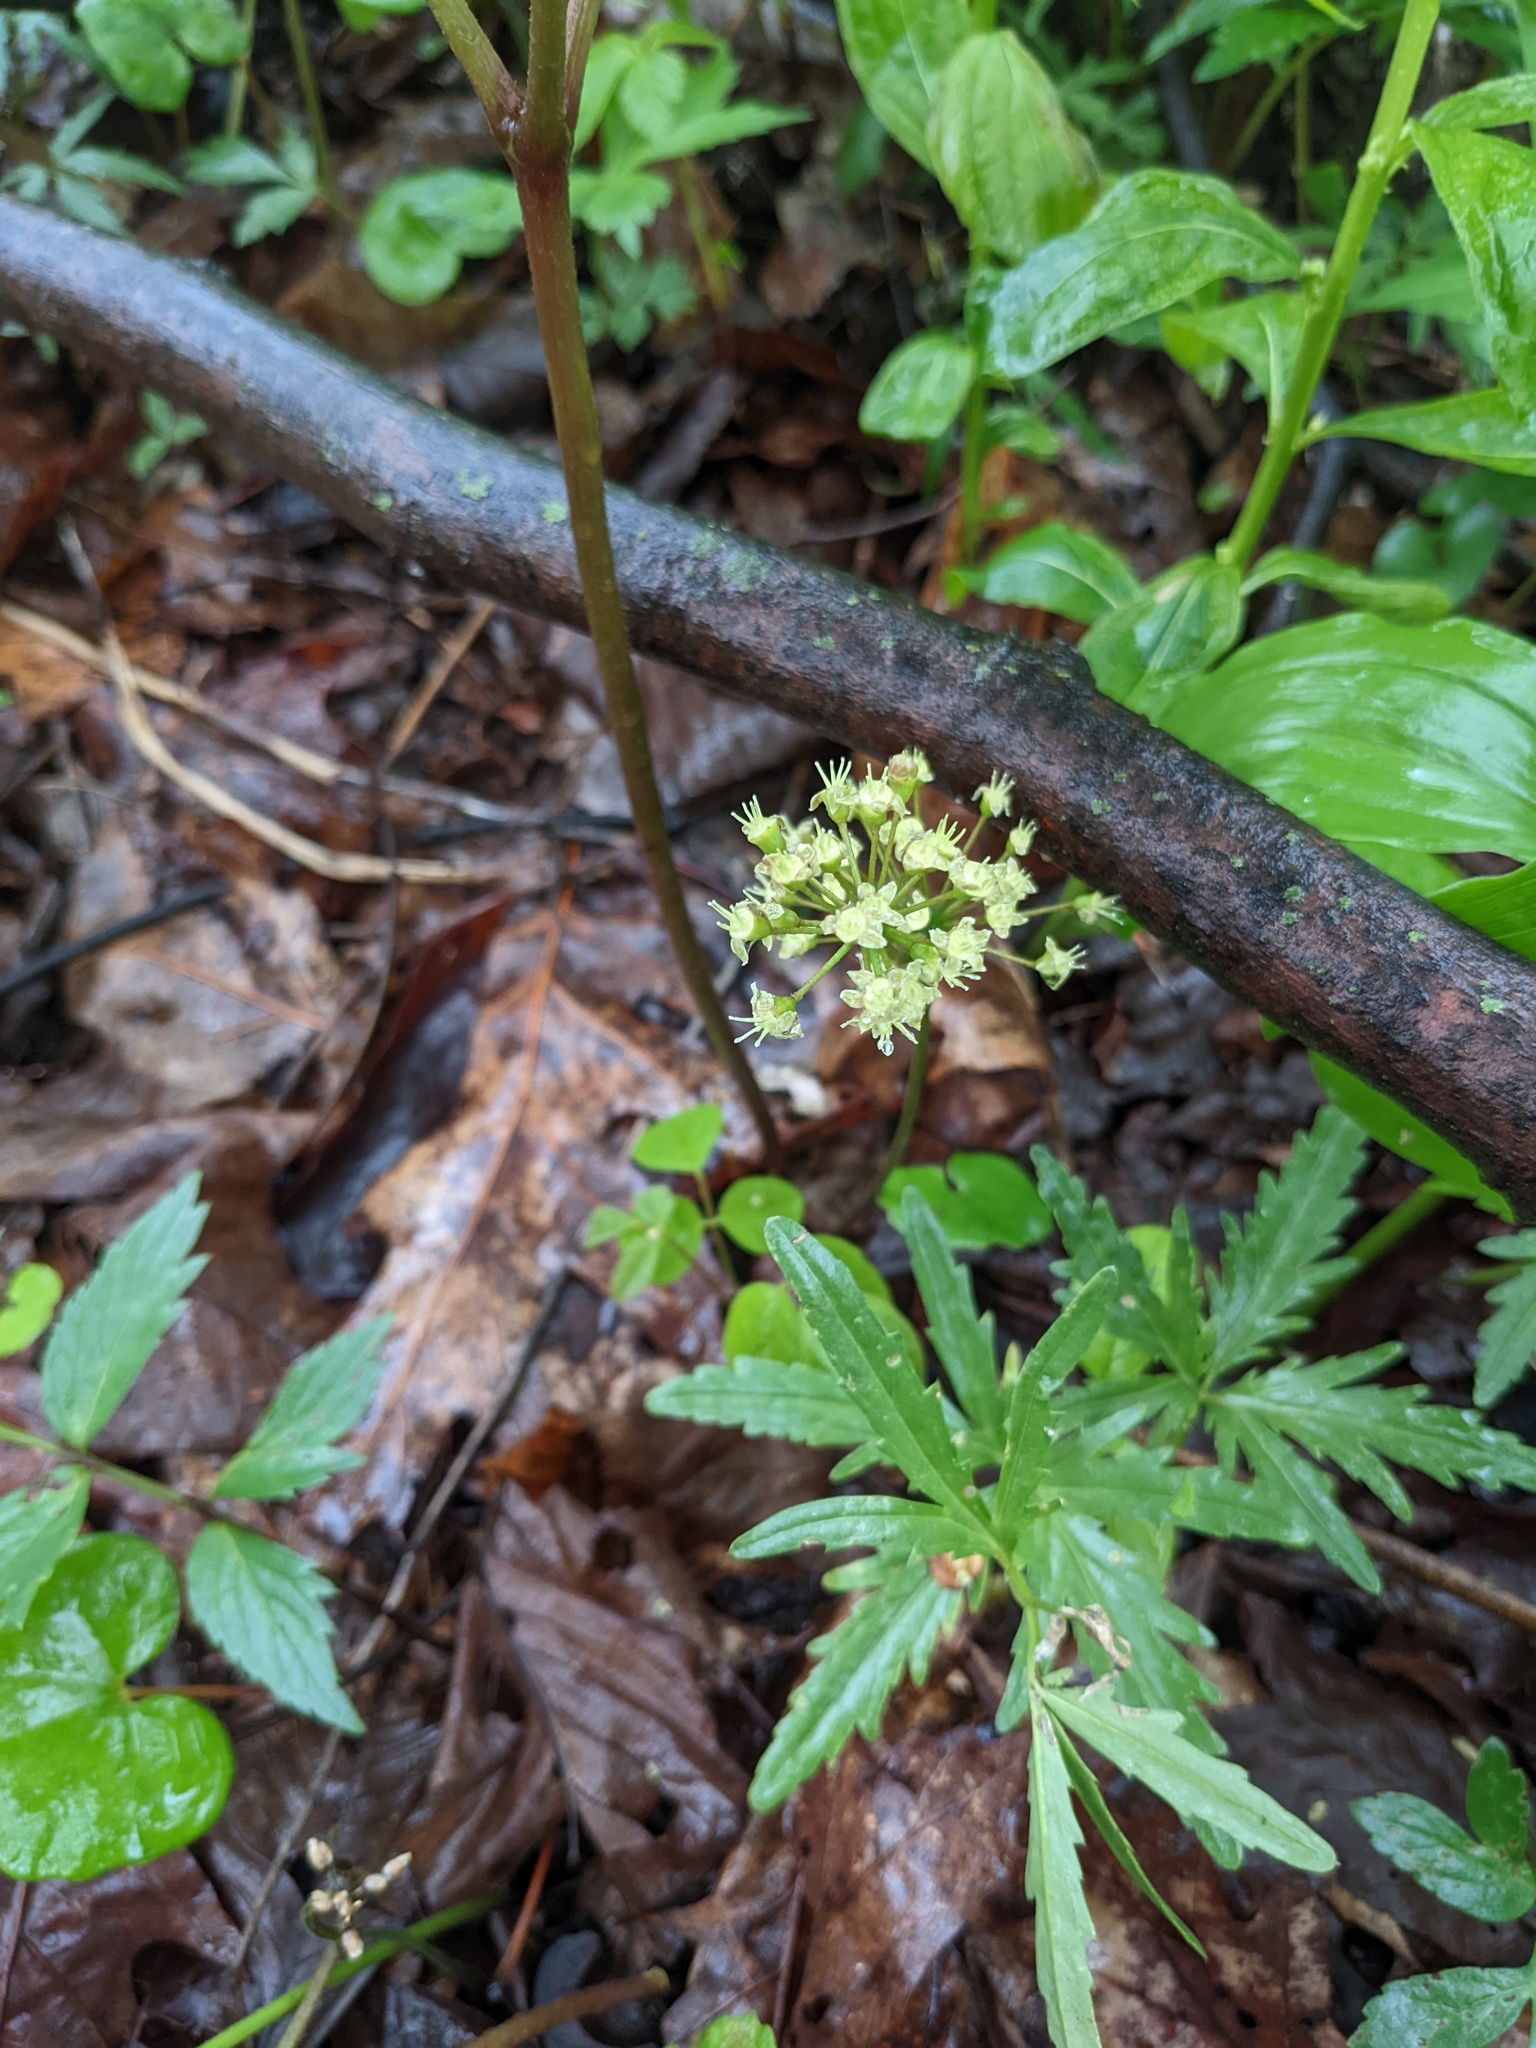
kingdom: Plantae
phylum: Tracheophyta
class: Magnoliopsida
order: Apiales
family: Araliaceae
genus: Aralia
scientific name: Aralia nudicaulis
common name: Wild sarsaparilla
